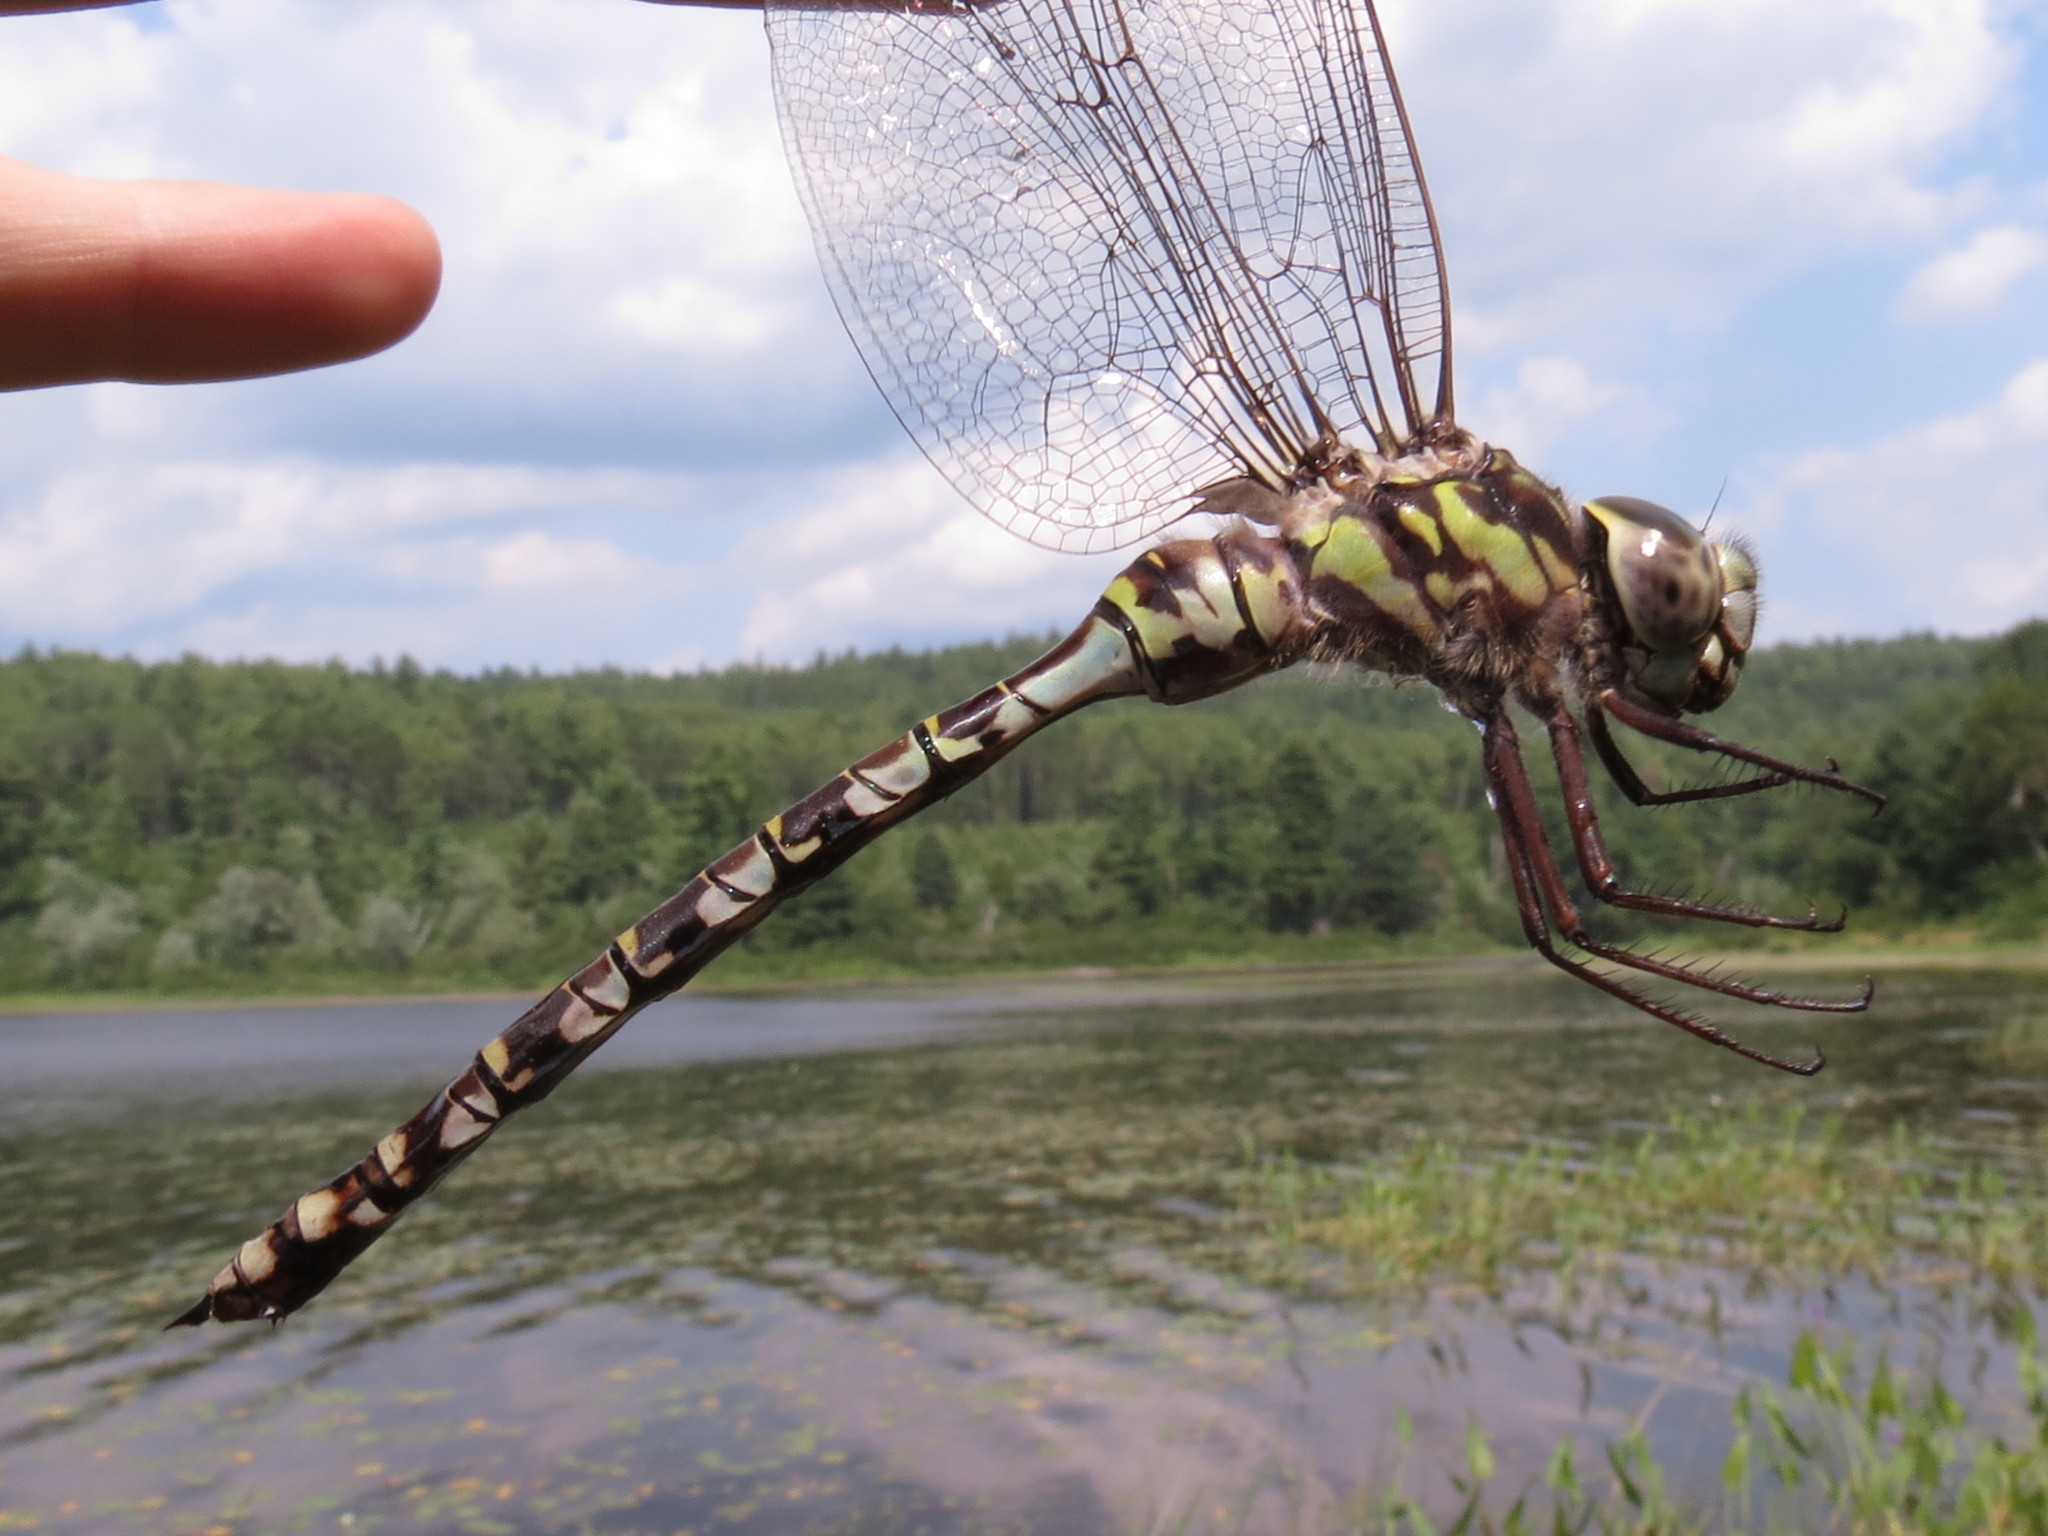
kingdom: Animalia
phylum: Arthropoda
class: Insecta
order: Odonata
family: Aeshnidae
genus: Aeshna
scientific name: Aeshna clepsydra
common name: Mottled darner
